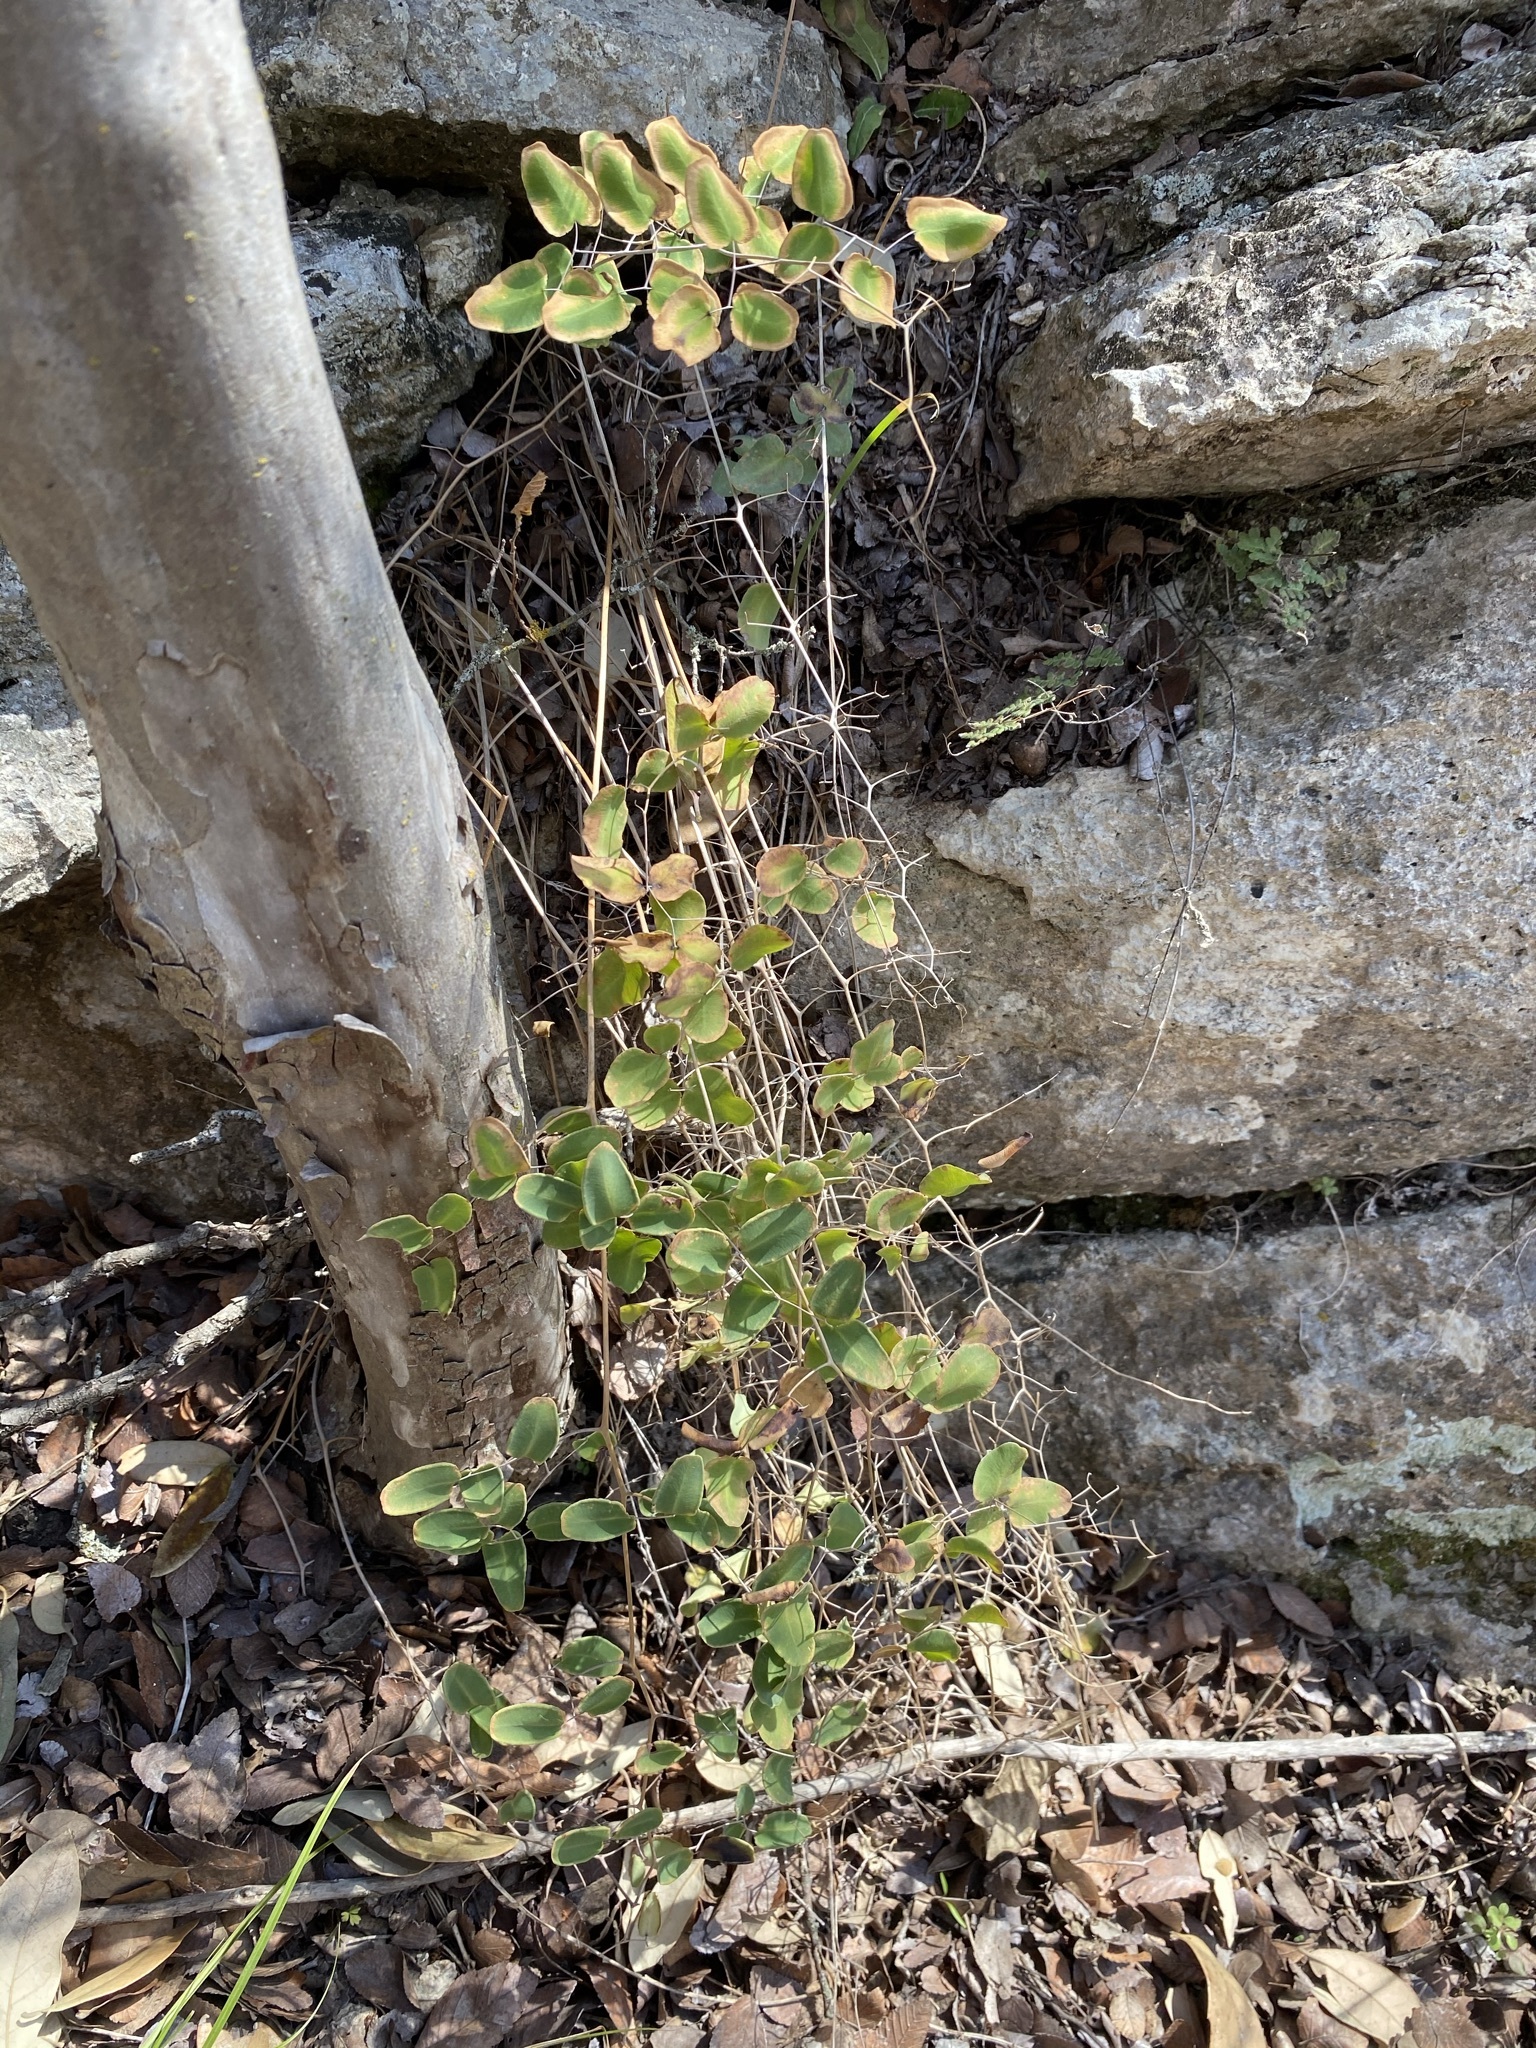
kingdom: Plantae
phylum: Tracheophyta
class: Polypodiopsida
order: Polypodiales
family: Pteridaceae
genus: Pellaea
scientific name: Pellaea ovata
